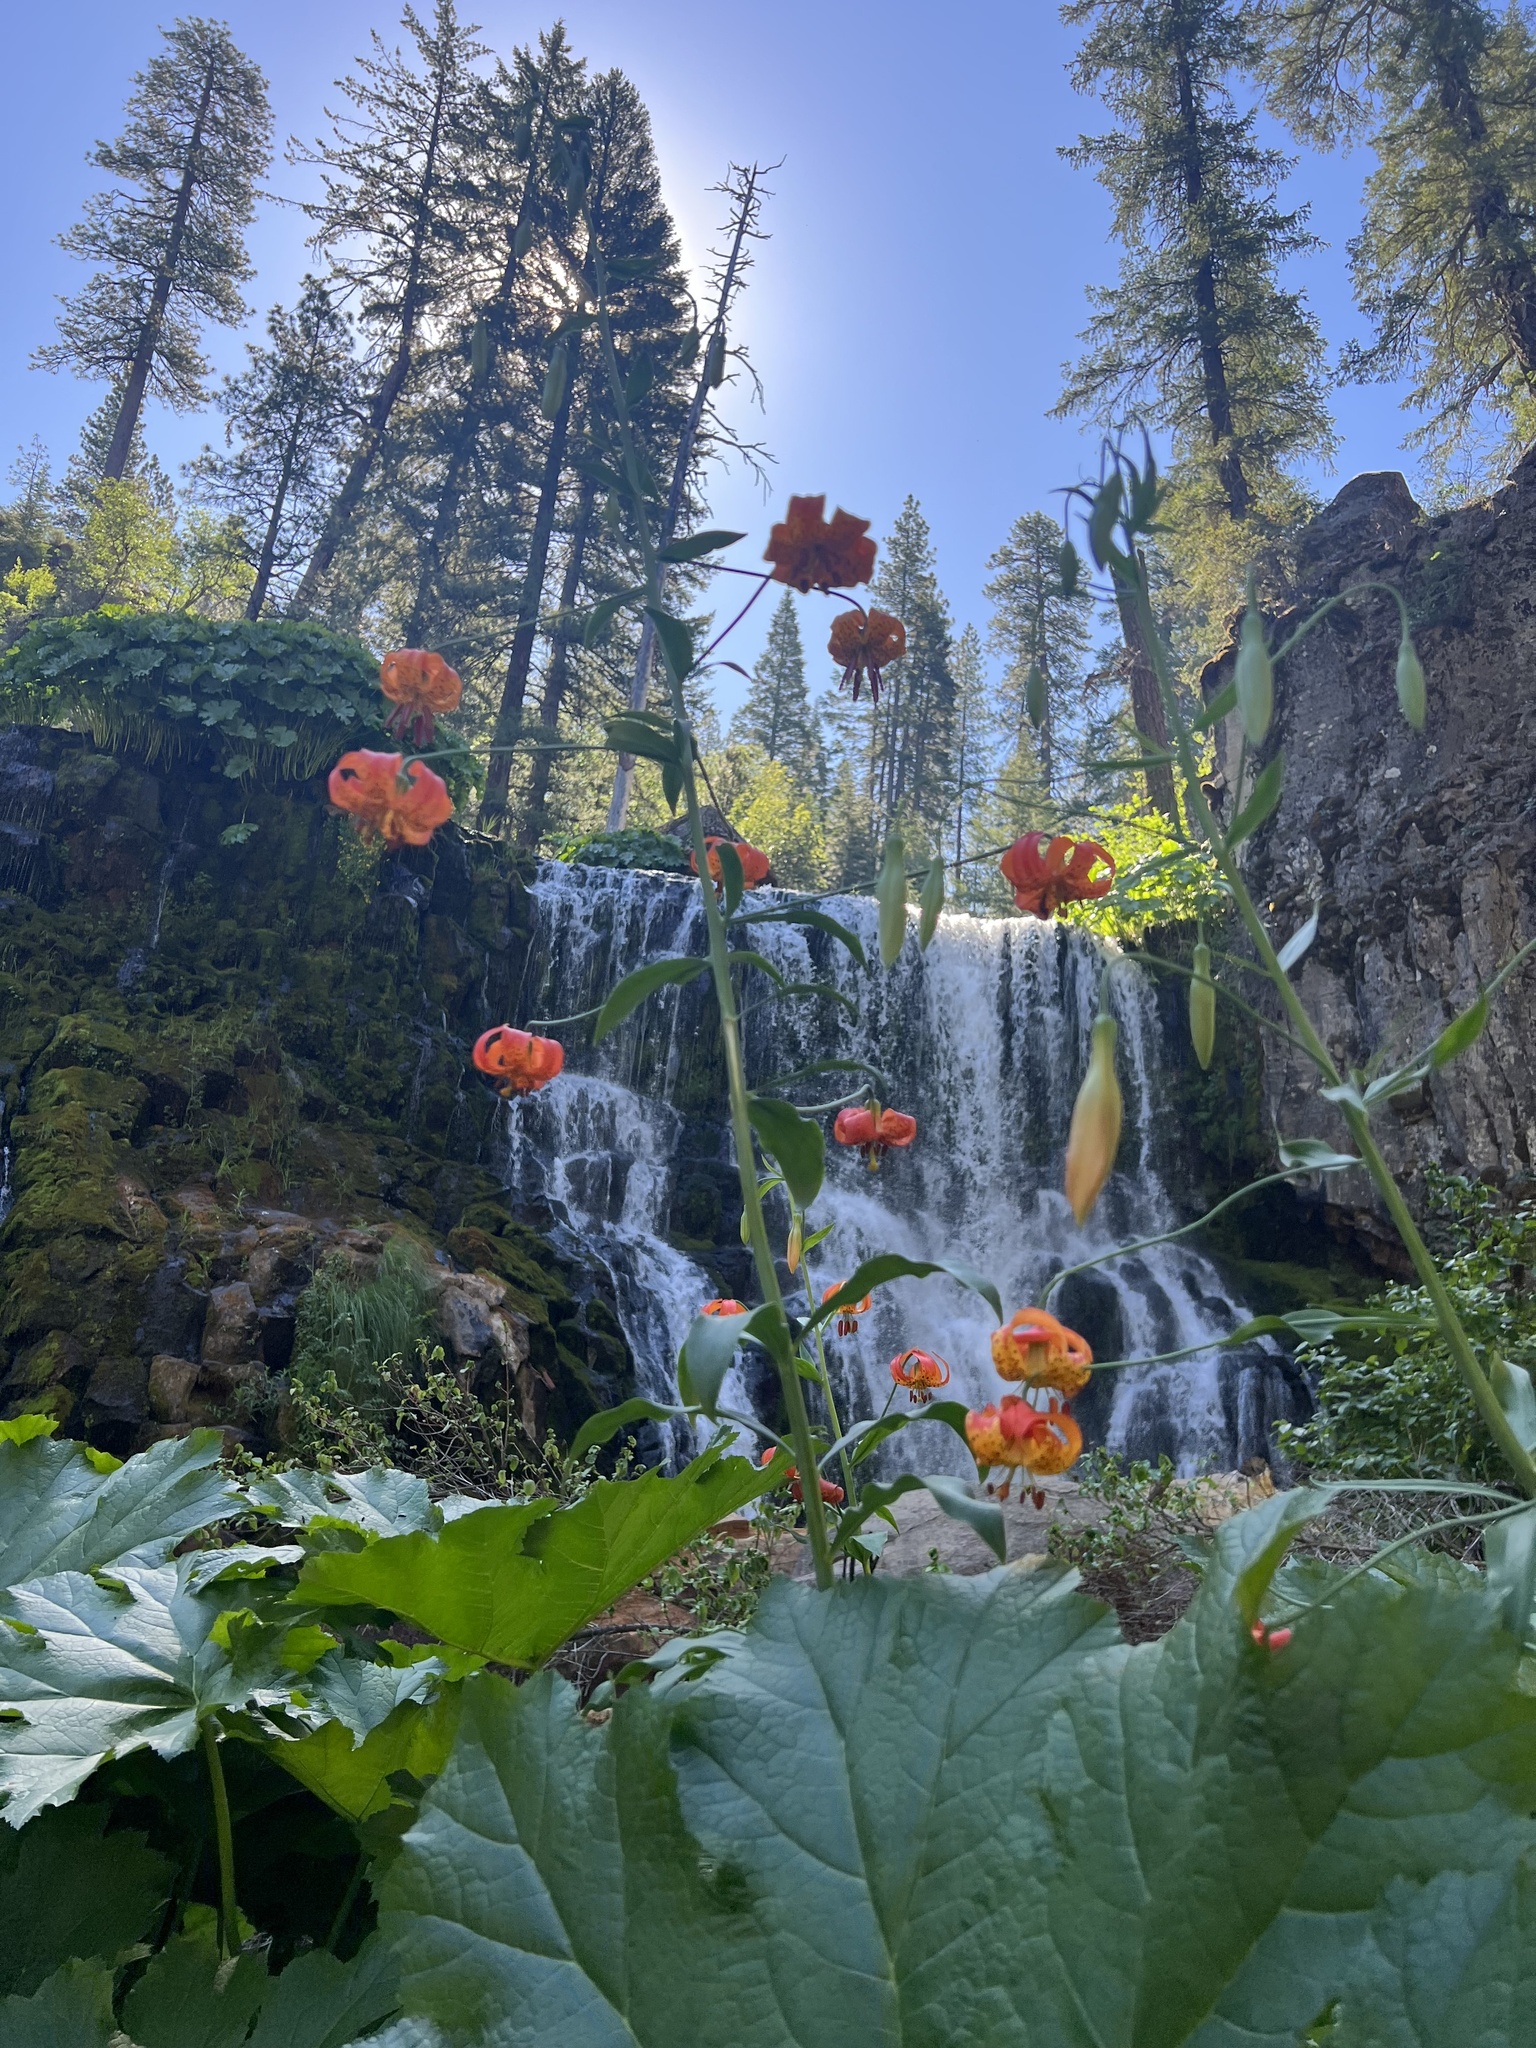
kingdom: Plantae
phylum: Tracheophyta
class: Liliopsida
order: Liliales
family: Liliaceae
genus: Lilium
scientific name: Lilium pardalinum
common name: Panther lily
